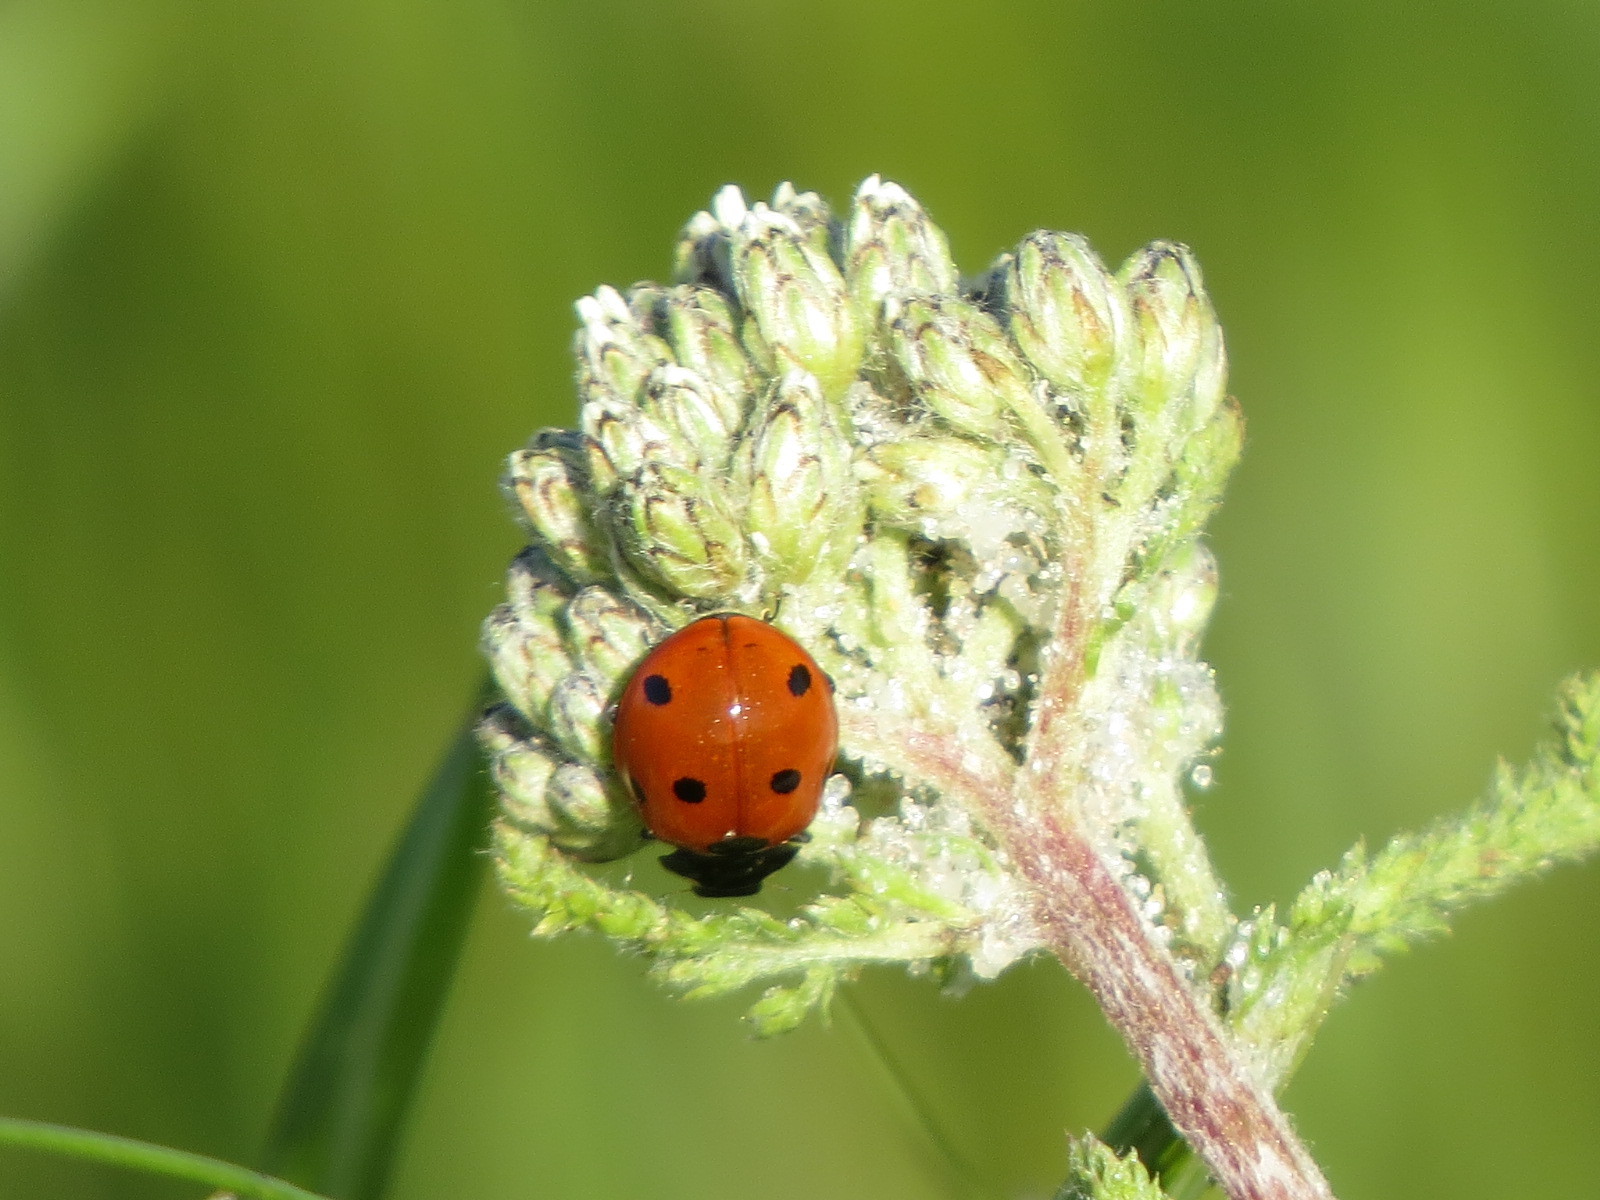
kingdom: Animalia
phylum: Arthropoda
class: Insecta
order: Coleoptera
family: Coccinellidae
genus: Coccinella
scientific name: Coccinella septempunctata
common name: Sevenspotted lady beetle
